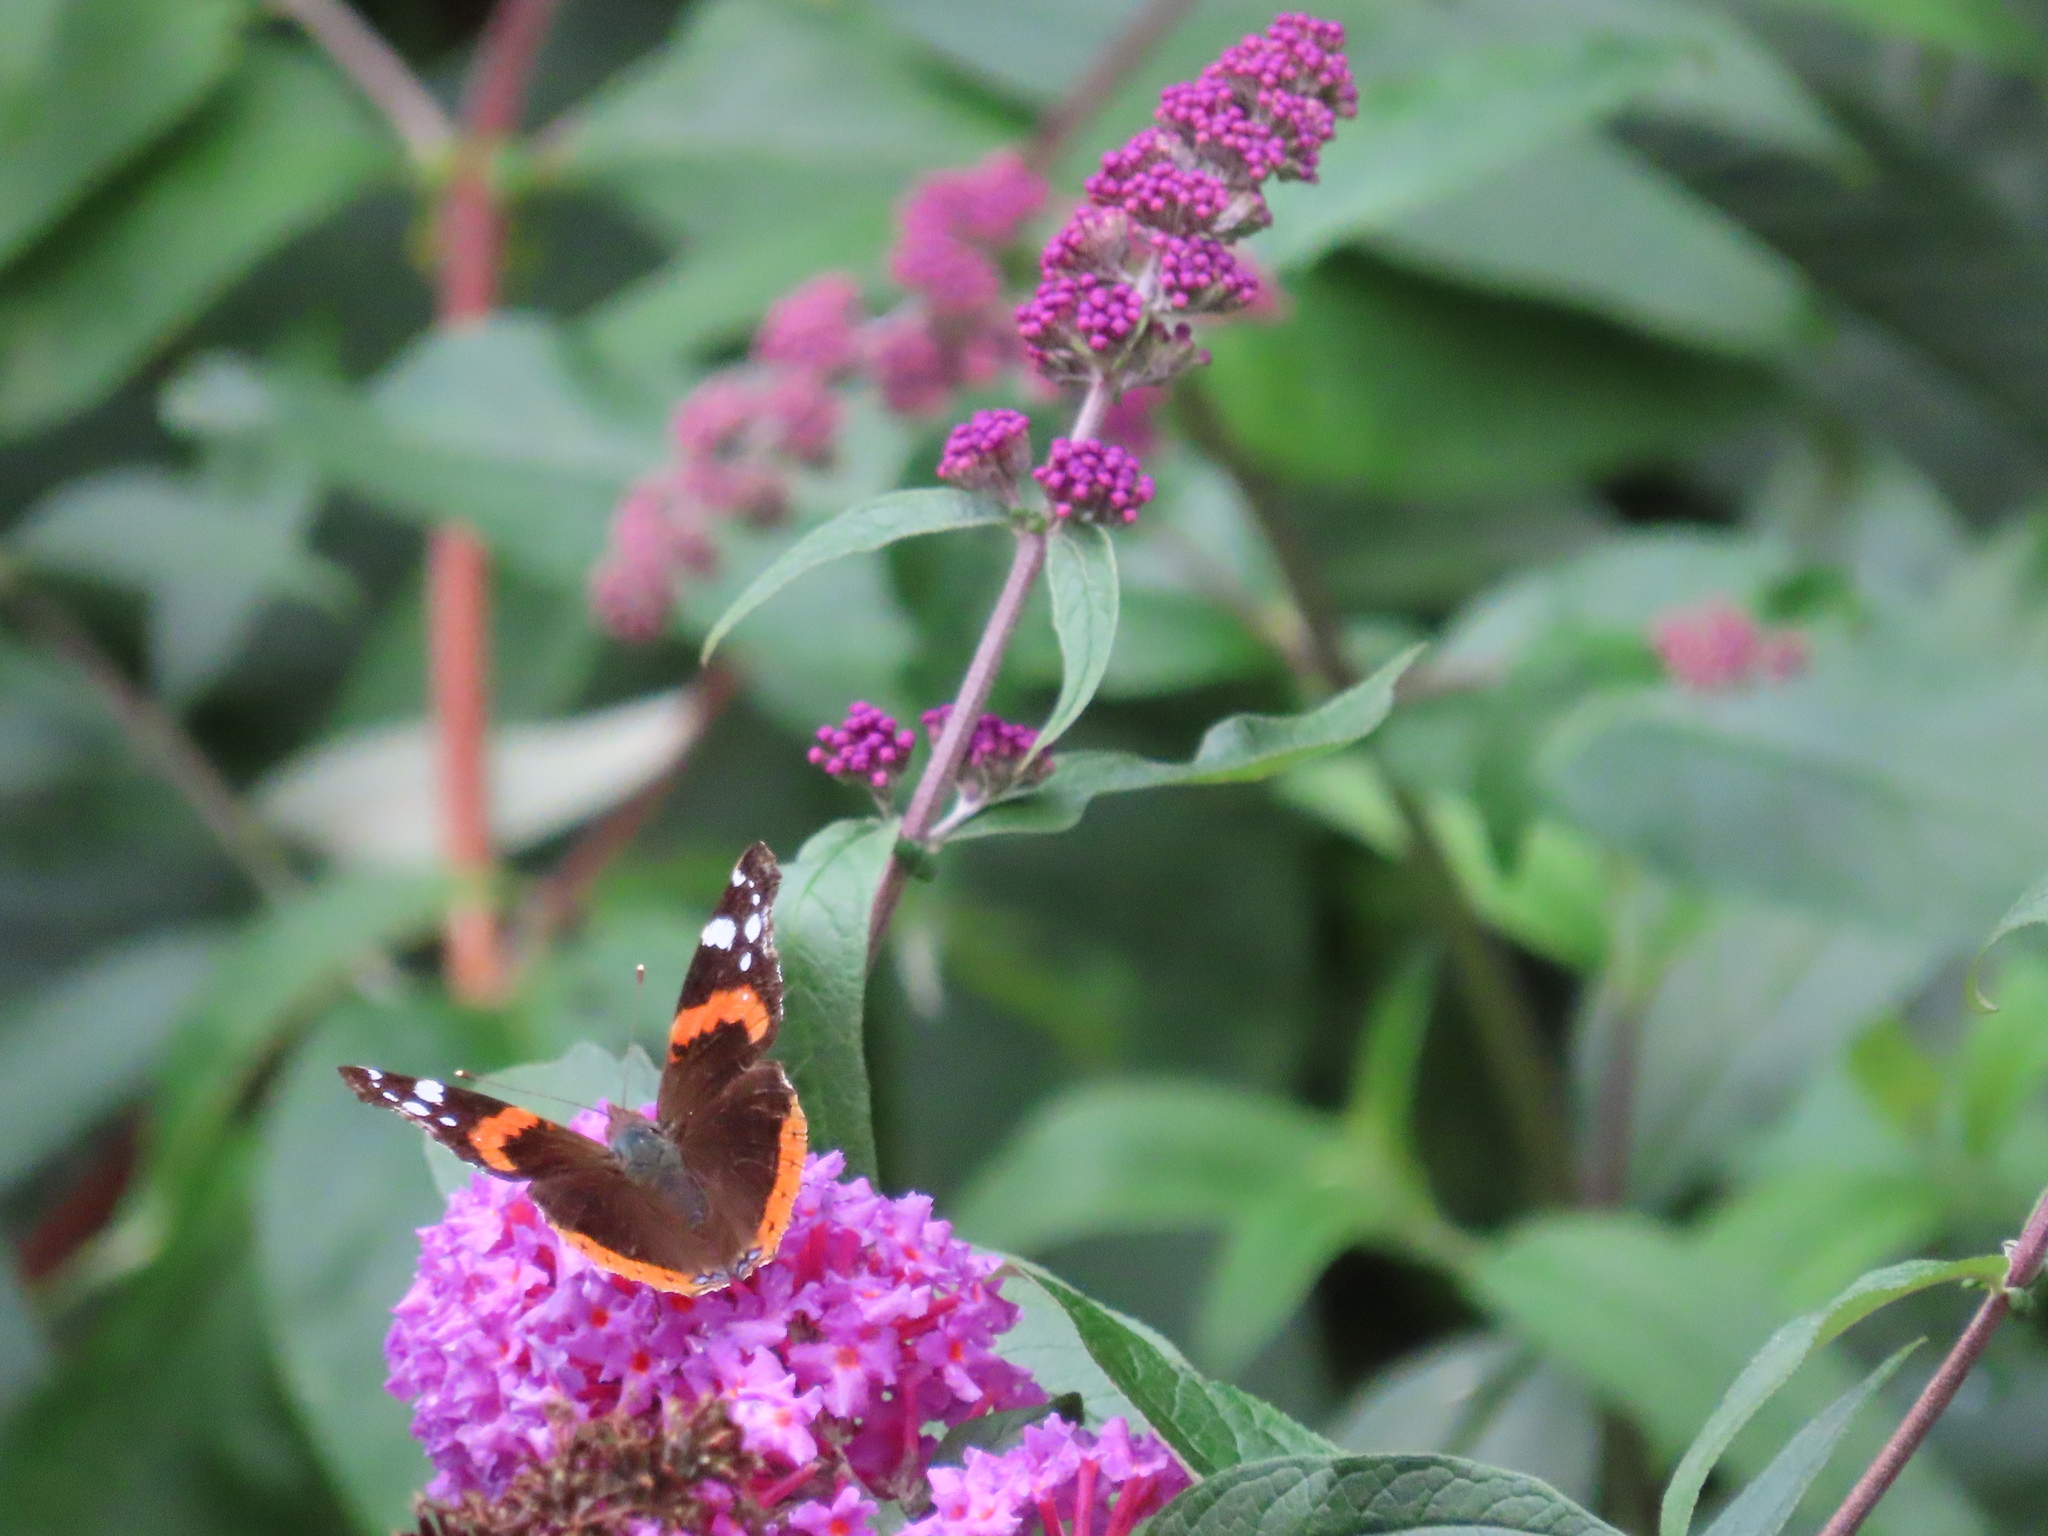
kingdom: Animalia
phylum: Arthropoda
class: Insecta
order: Lepidoptera
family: Nymphalidae
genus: Vanessa
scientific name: Vanessa atalanta
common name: Red admiral
